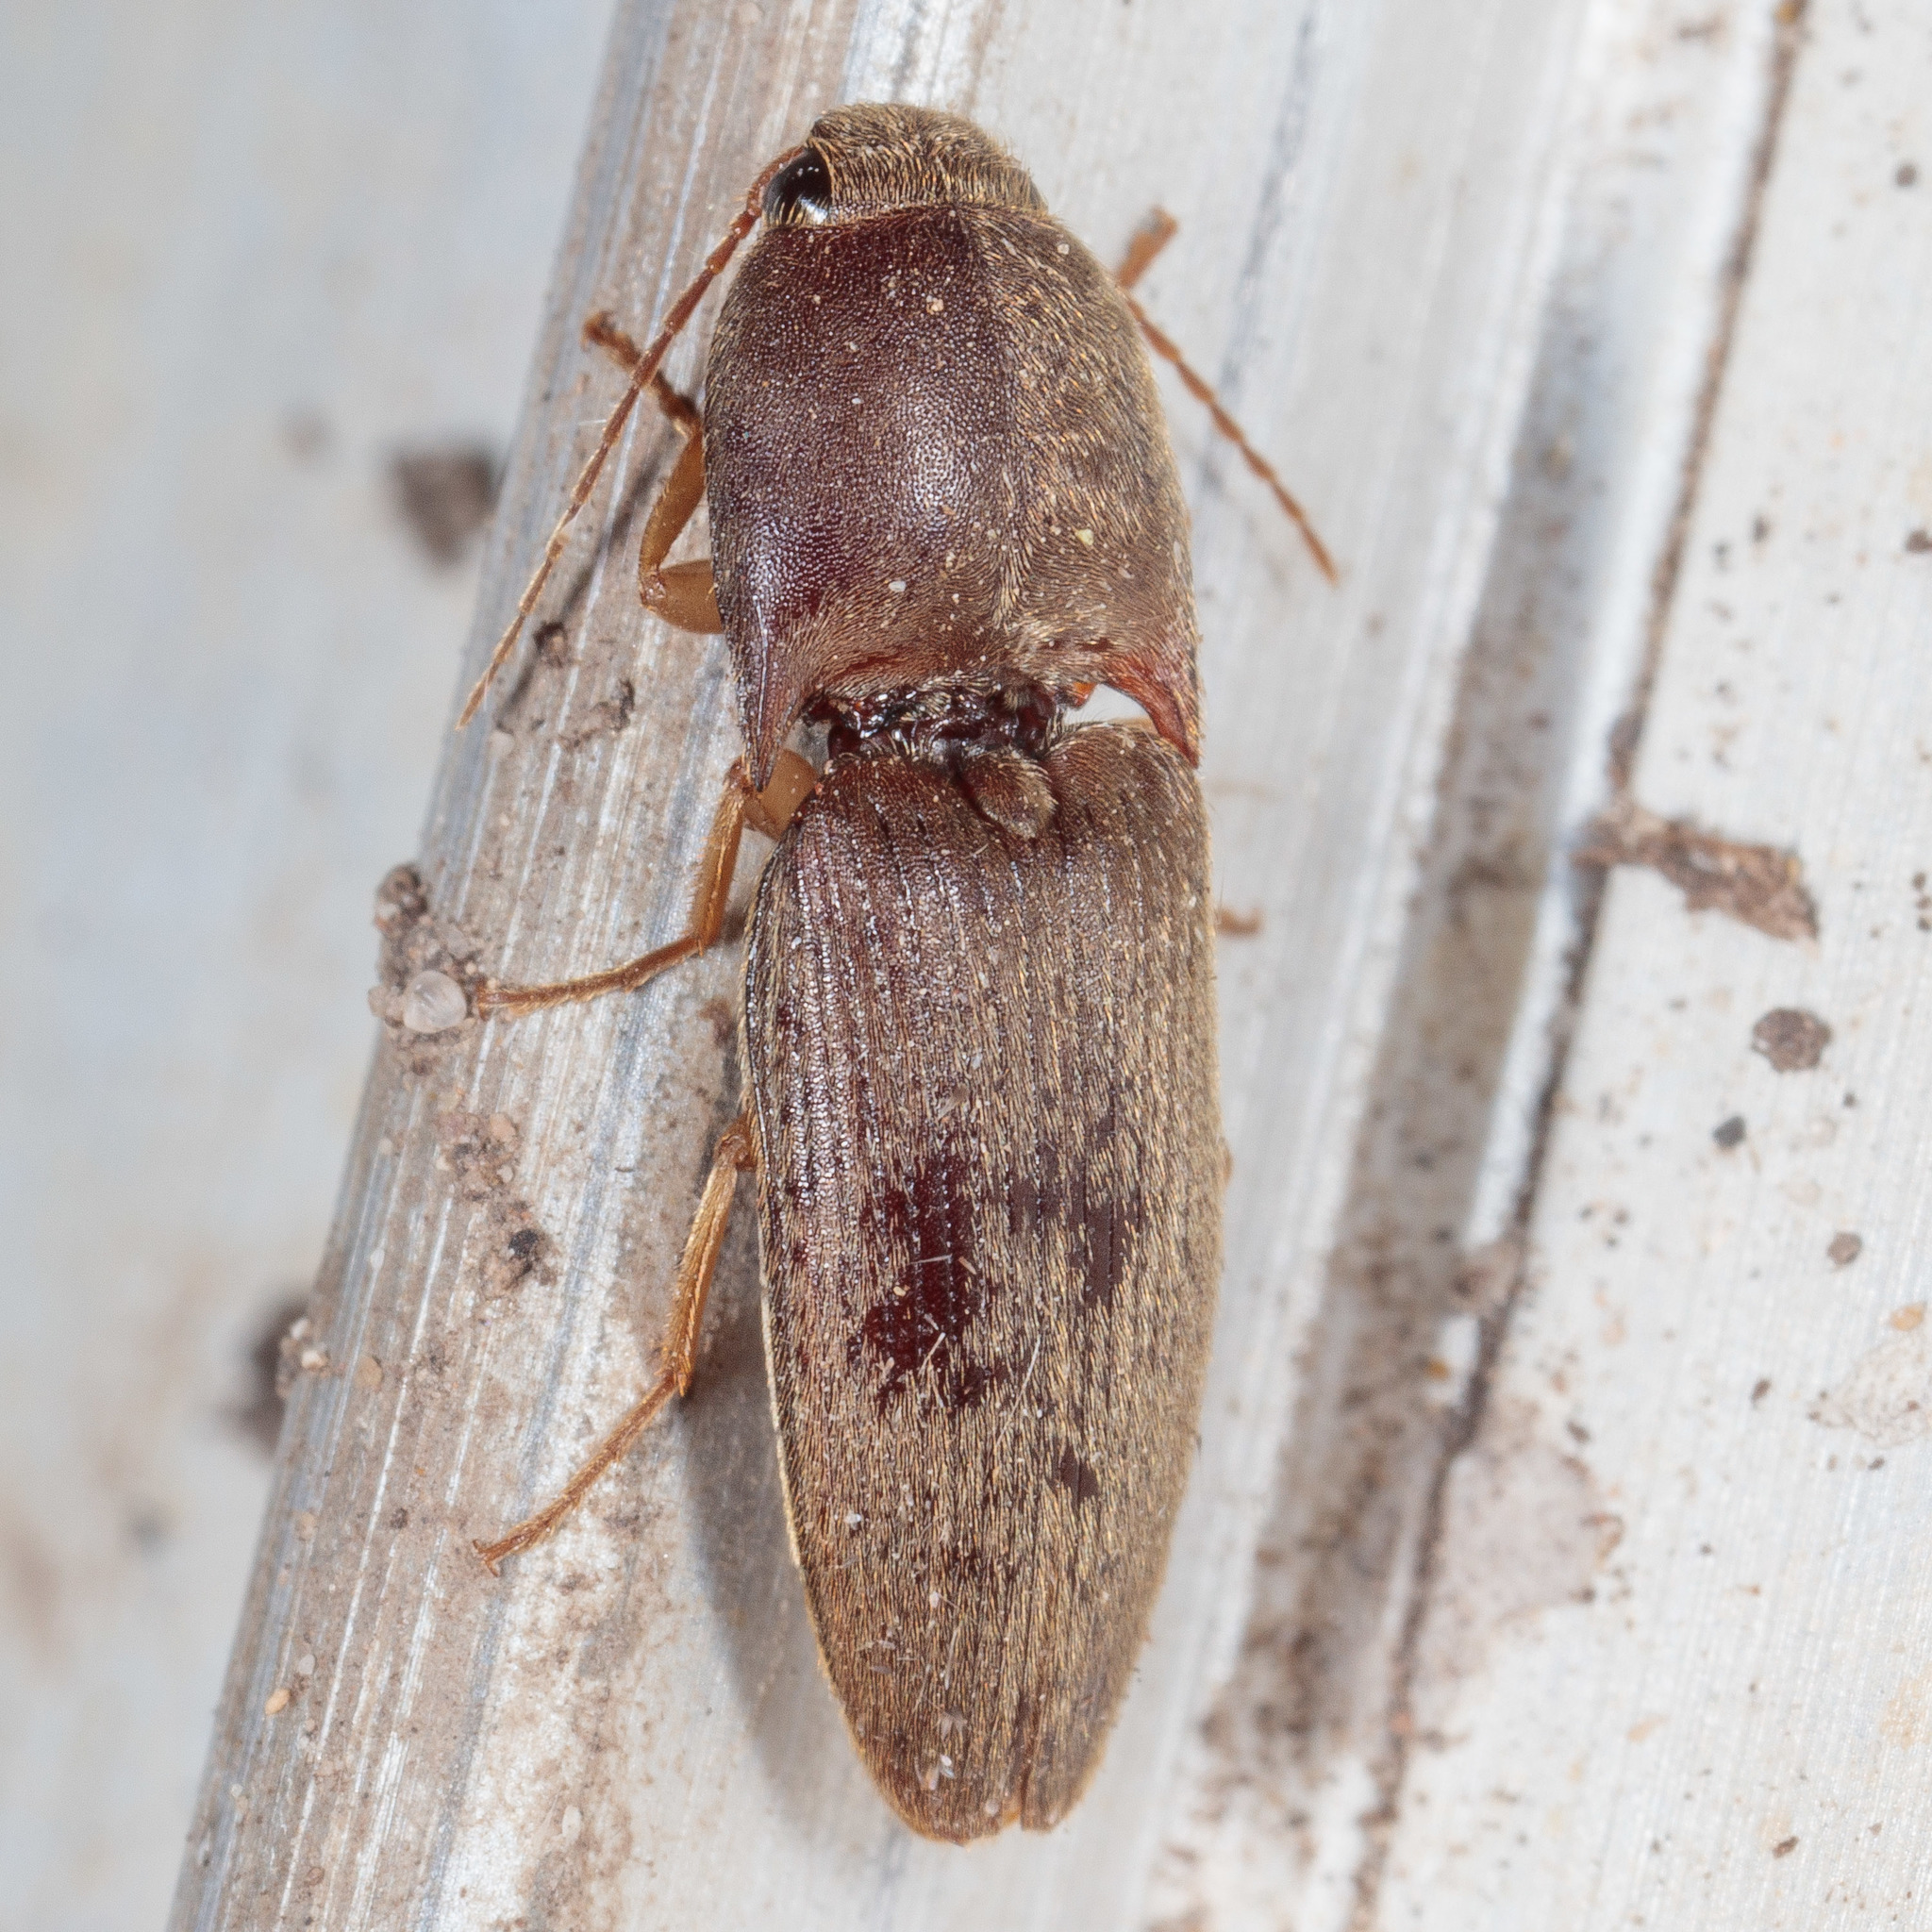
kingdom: Animalia
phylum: Arthropoda
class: Insecta
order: Coleoptera
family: Elateridae
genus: Conoderus
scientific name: Conoderus exsul
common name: Click beetle
